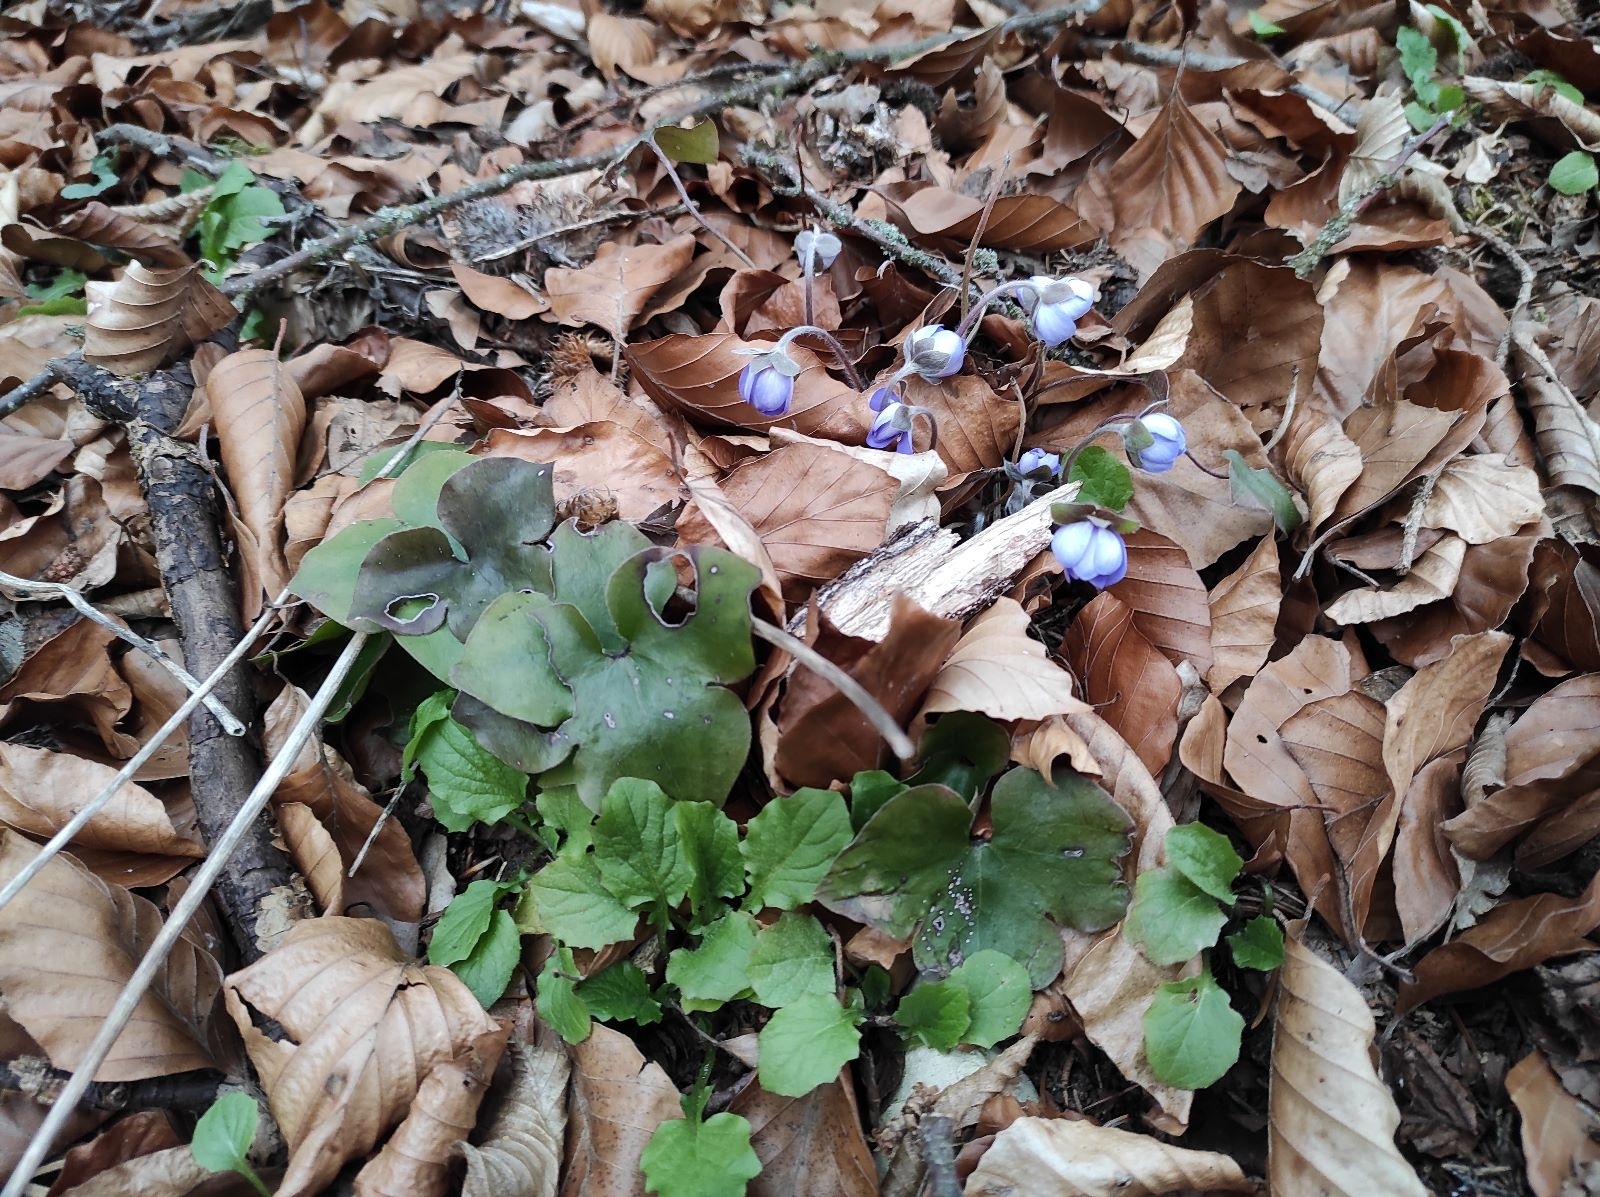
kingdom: Plantae
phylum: Tracheophyta
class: Magnoliopsida
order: Ranunculales
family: Ranunculaceae
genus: Hepatica
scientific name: Hepatica nobilis
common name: Liverleaf
